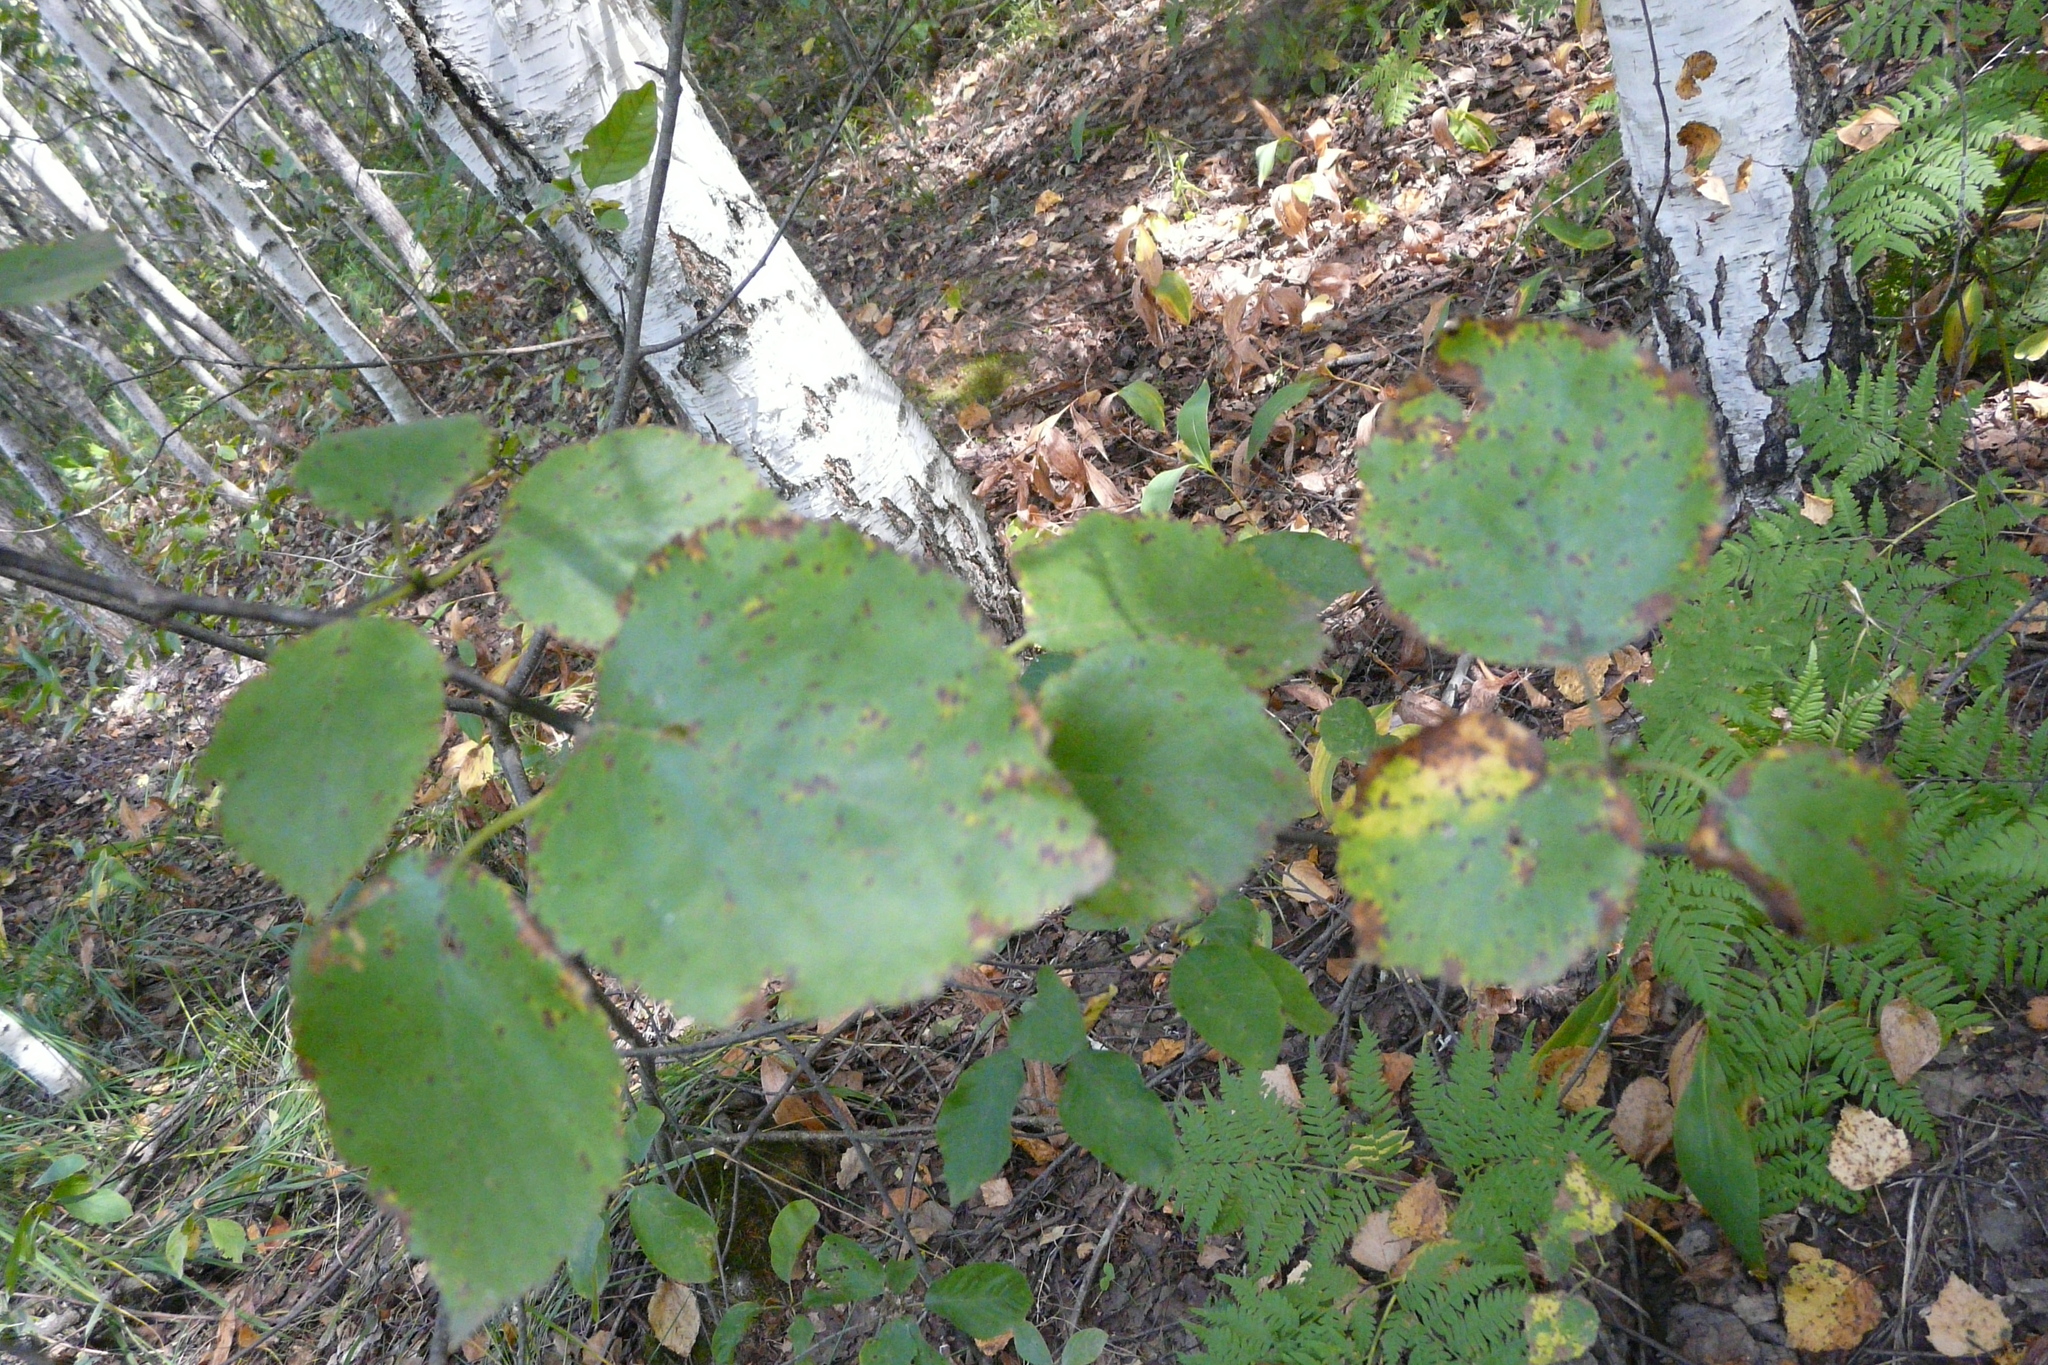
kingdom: Plantae
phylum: Tracheophyta
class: Magnoliopsida
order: Fagales
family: Betulaceae
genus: Betula
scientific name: Betula pubescens
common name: Downy birch
